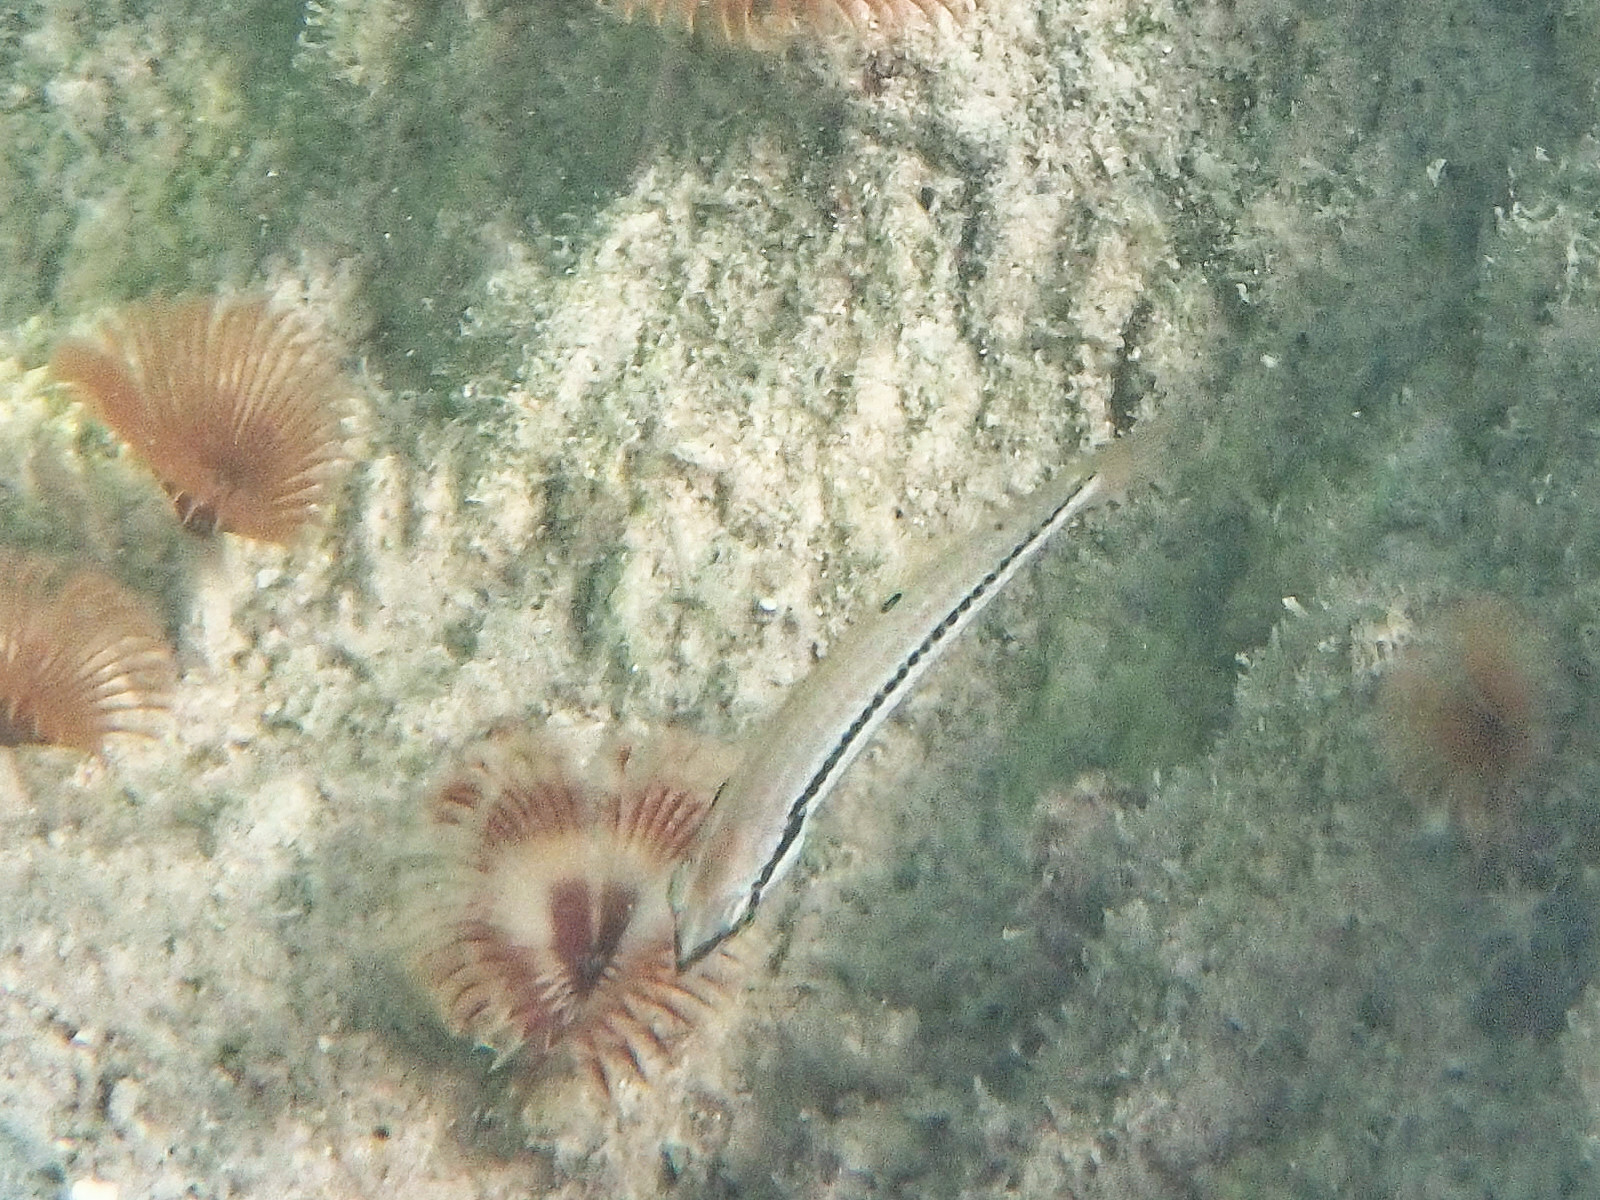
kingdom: Animalia
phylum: Chordata
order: Perciformes
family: Labridae
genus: Halichoeres
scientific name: Halichoeres bivittatus
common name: Slippery dick
